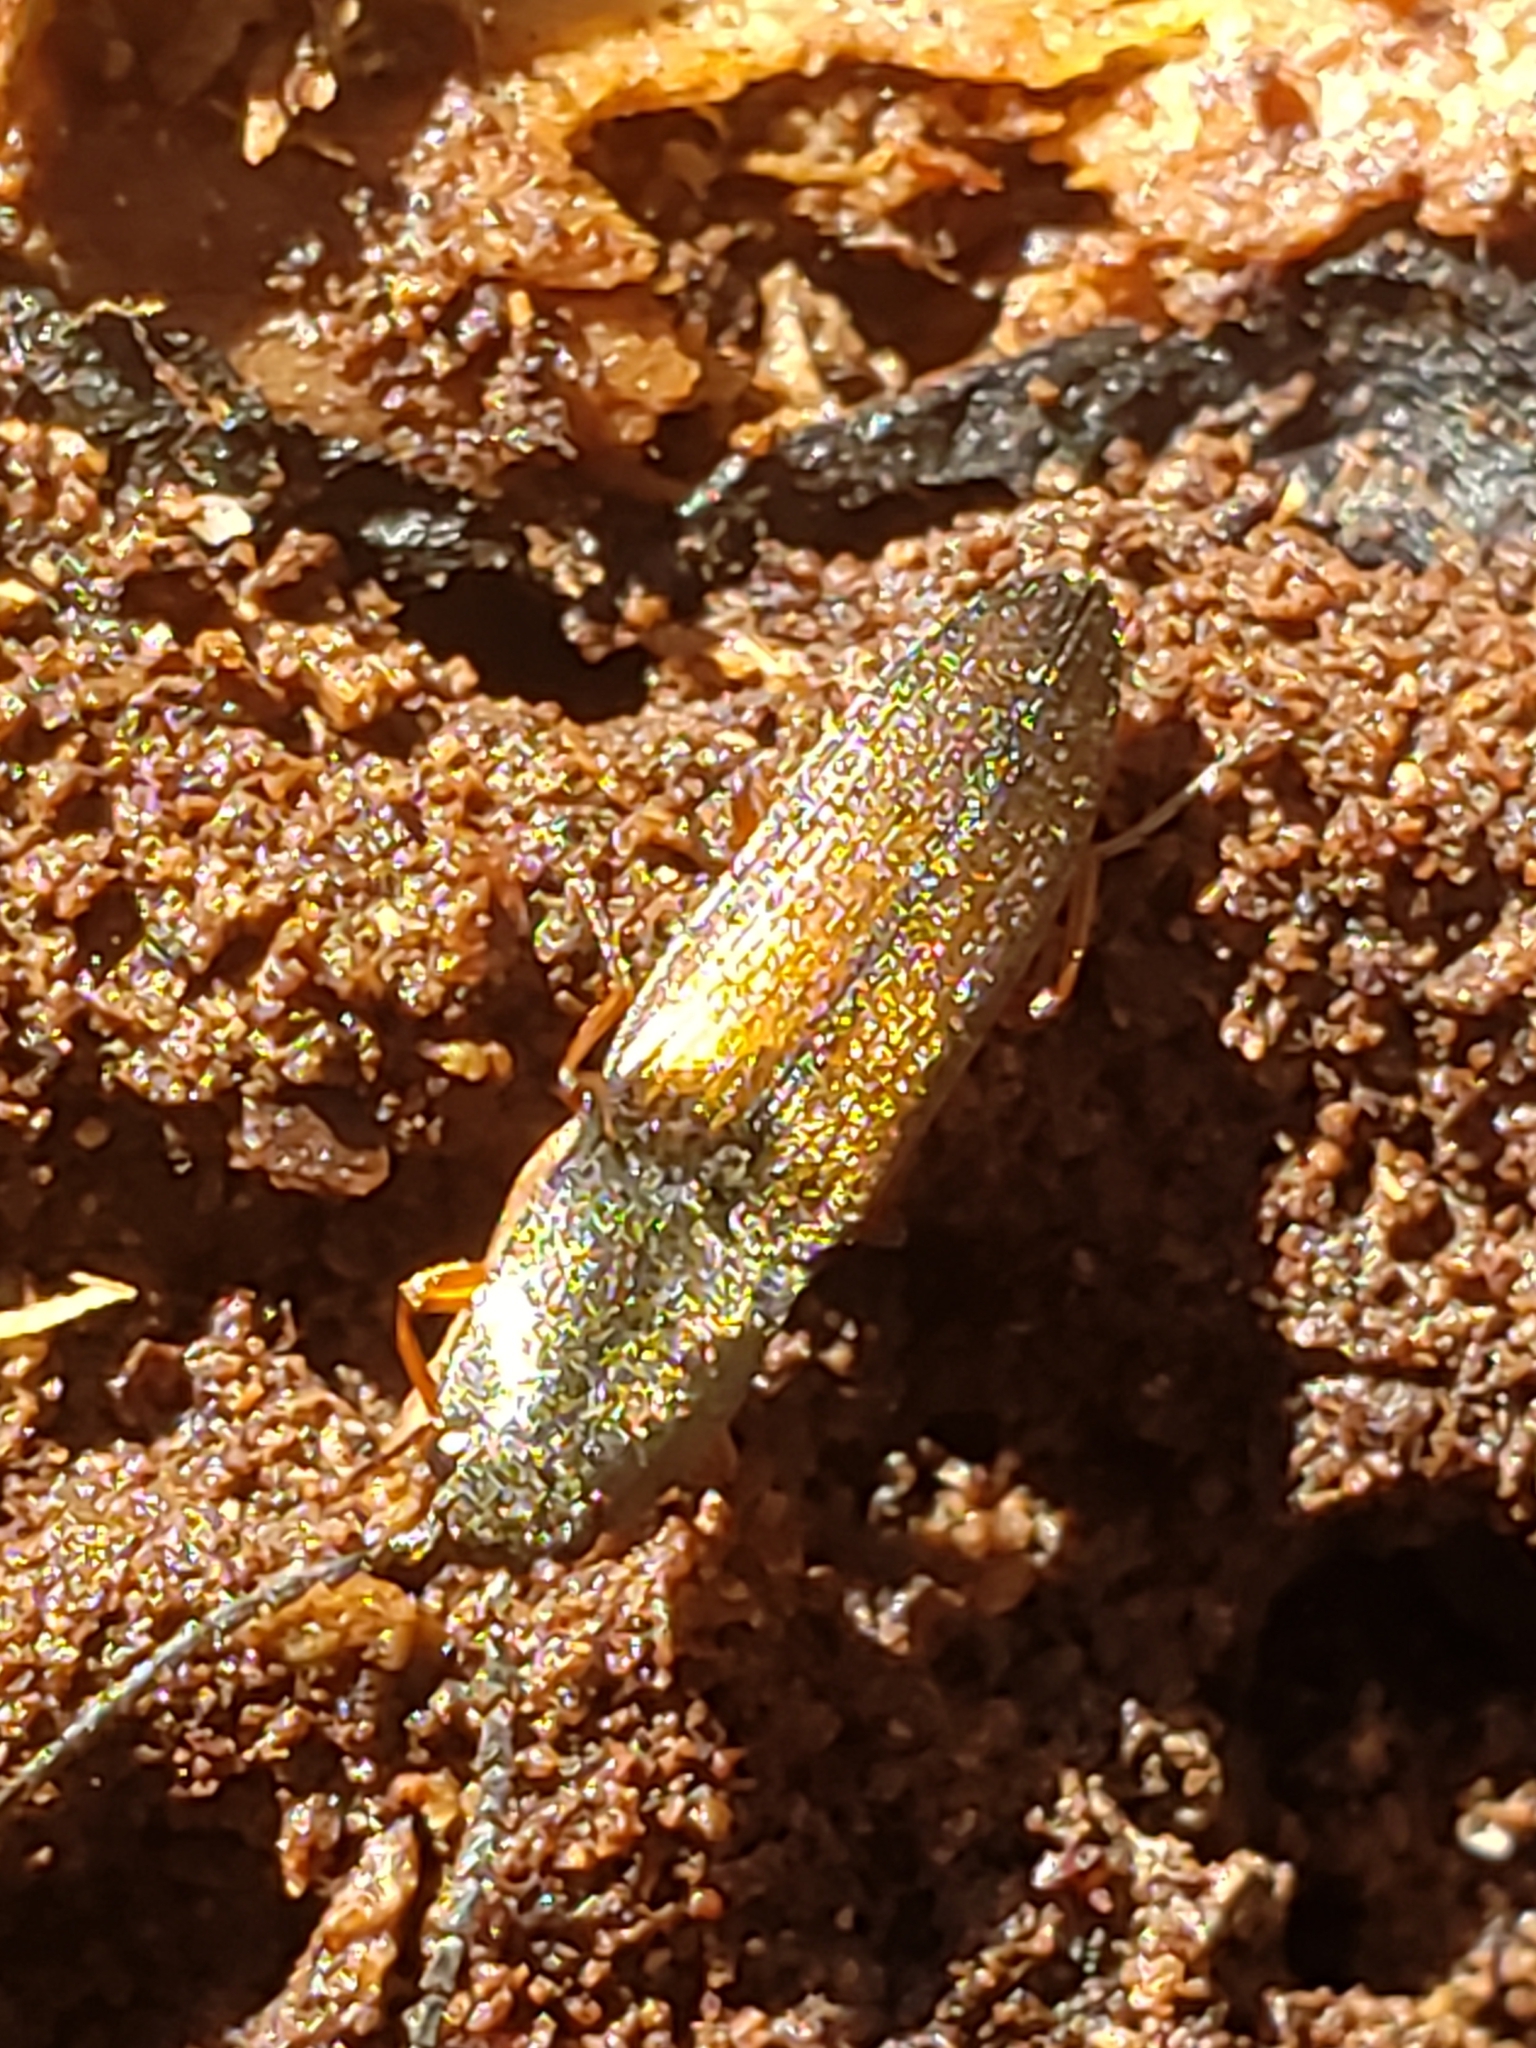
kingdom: Animalia
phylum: Arthropoda
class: Insecta
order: Coleoptera
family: Elateridae
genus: Corymbitodes
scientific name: Corymbitodes tarsalis
